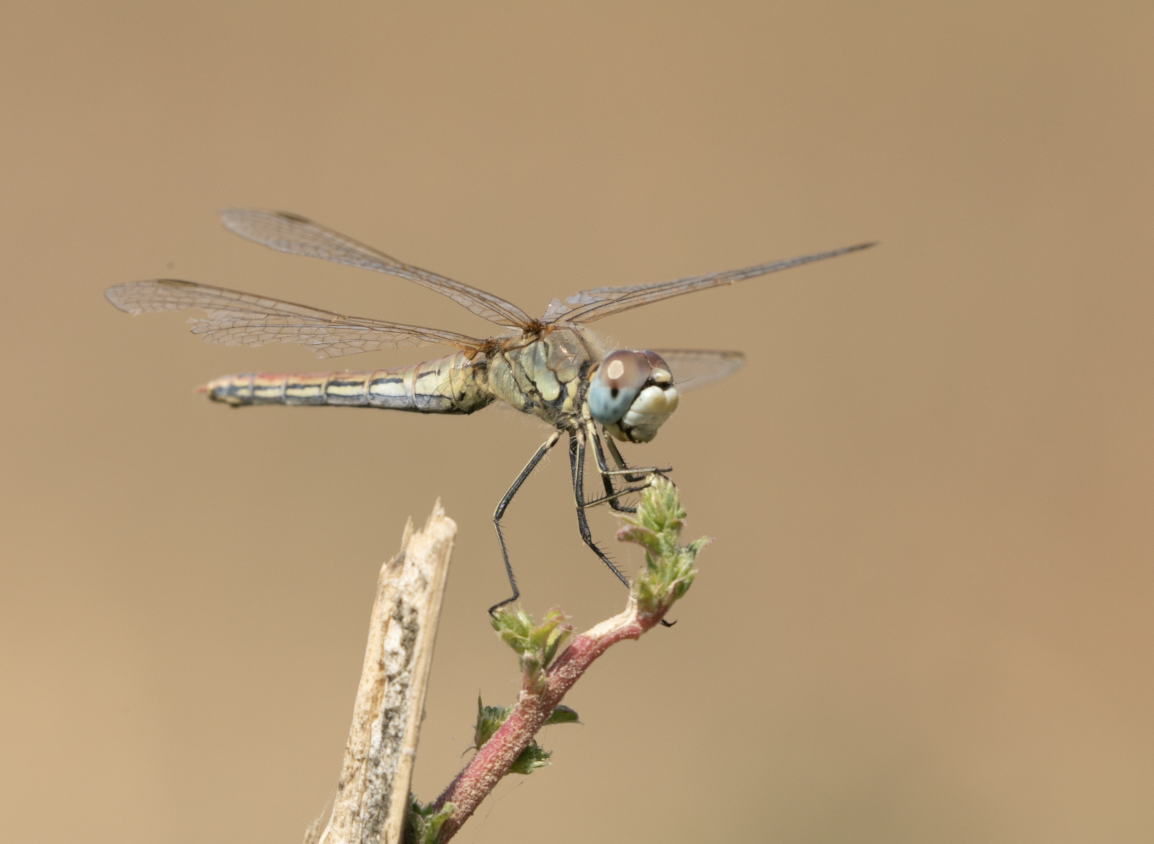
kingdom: Animalia
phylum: Arthropoda
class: Insecta
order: Odonata
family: Libellulidae
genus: Sympetrum
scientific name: Sympetrum fonscolombii
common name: Red-veined darter
